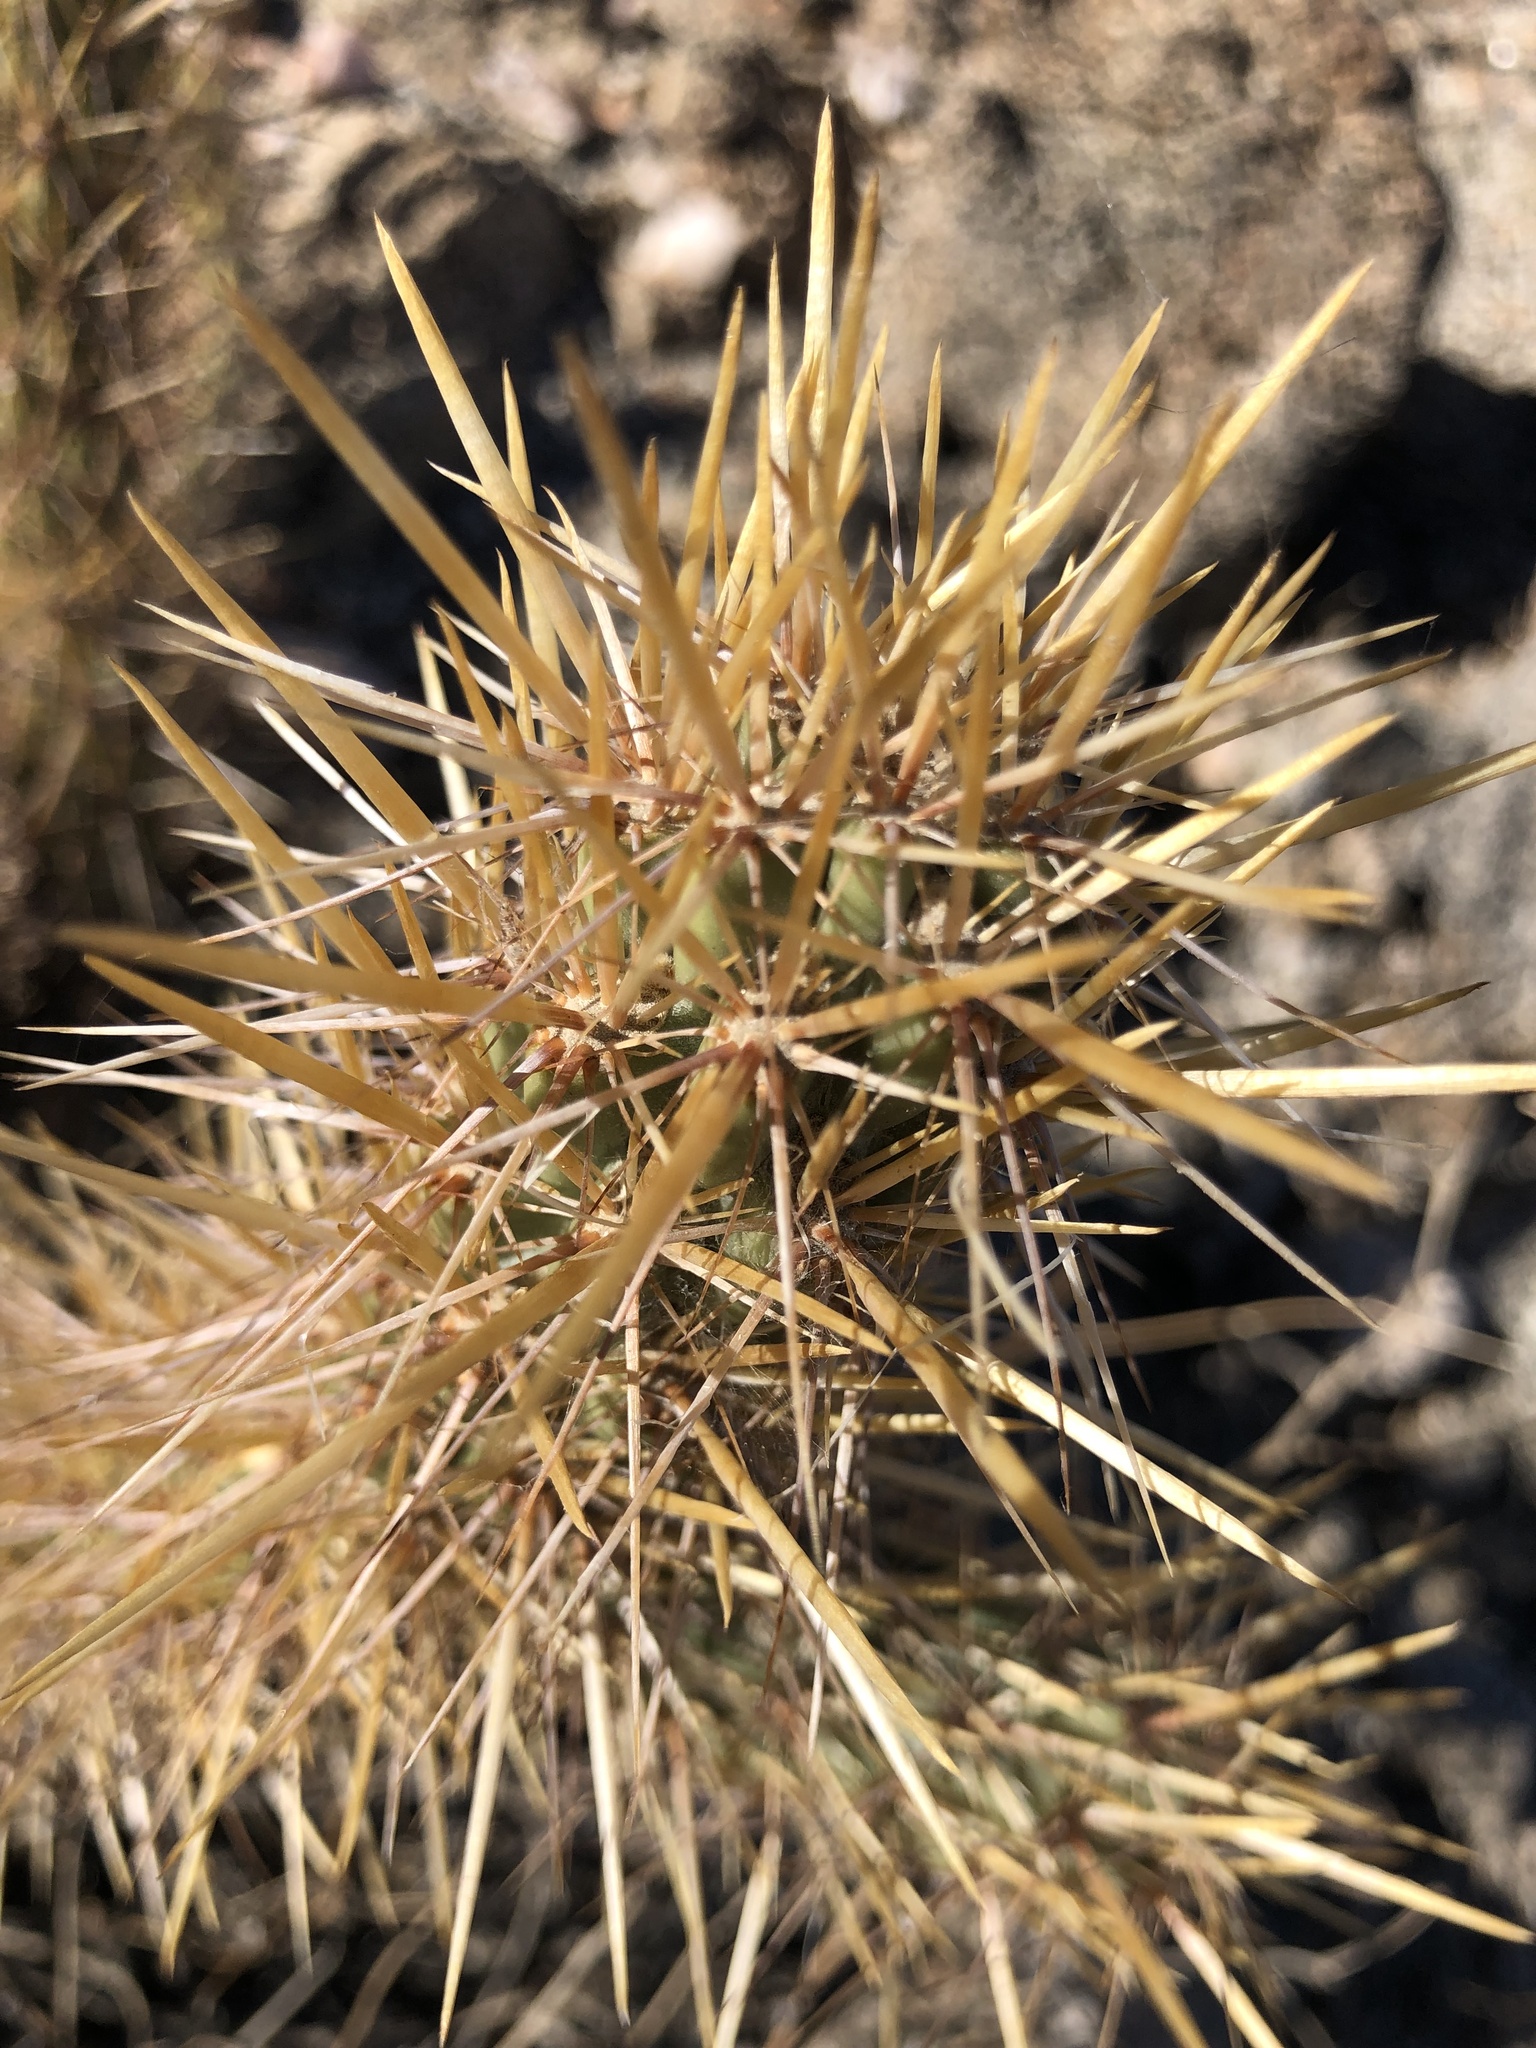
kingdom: Plantae
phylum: Tracheophyta
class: Magnoliopsida
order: Caryophyllales
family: Cactaceae
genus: Cylindropuntia
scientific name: Cylindropuntia ganderi
